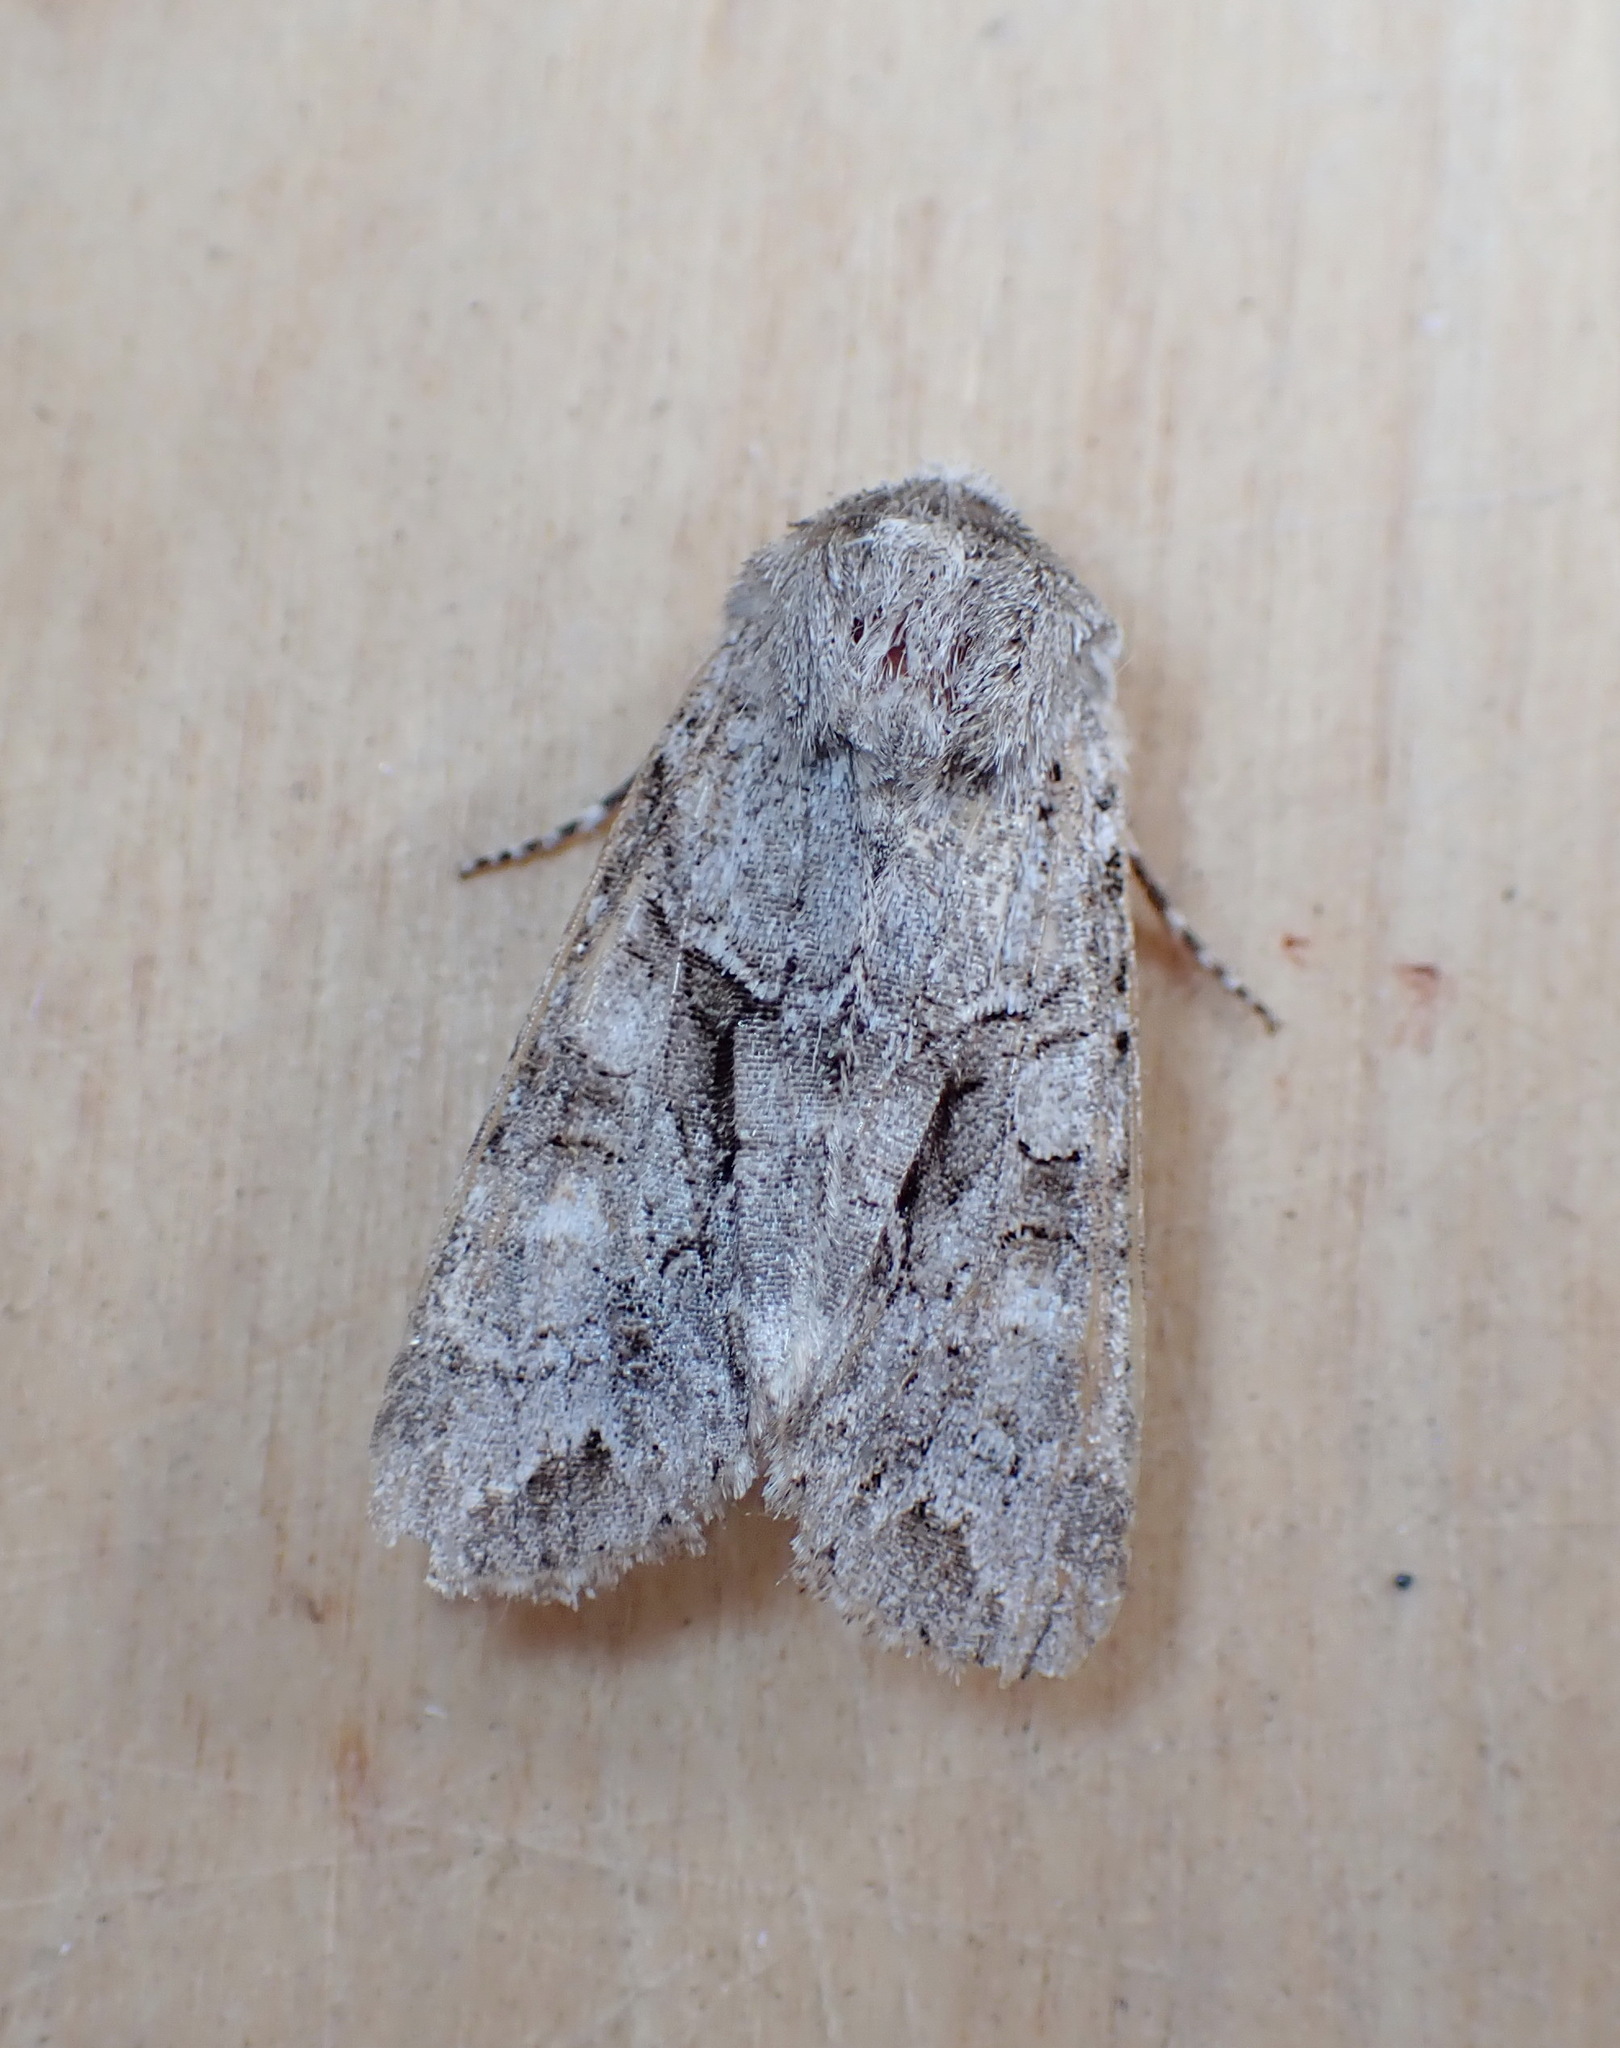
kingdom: Animalia
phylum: Arthropoda
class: Insecta
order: Lepidoptera
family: Noctuidae
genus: Achatia
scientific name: Achatia distincta
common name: Distinct quaker
